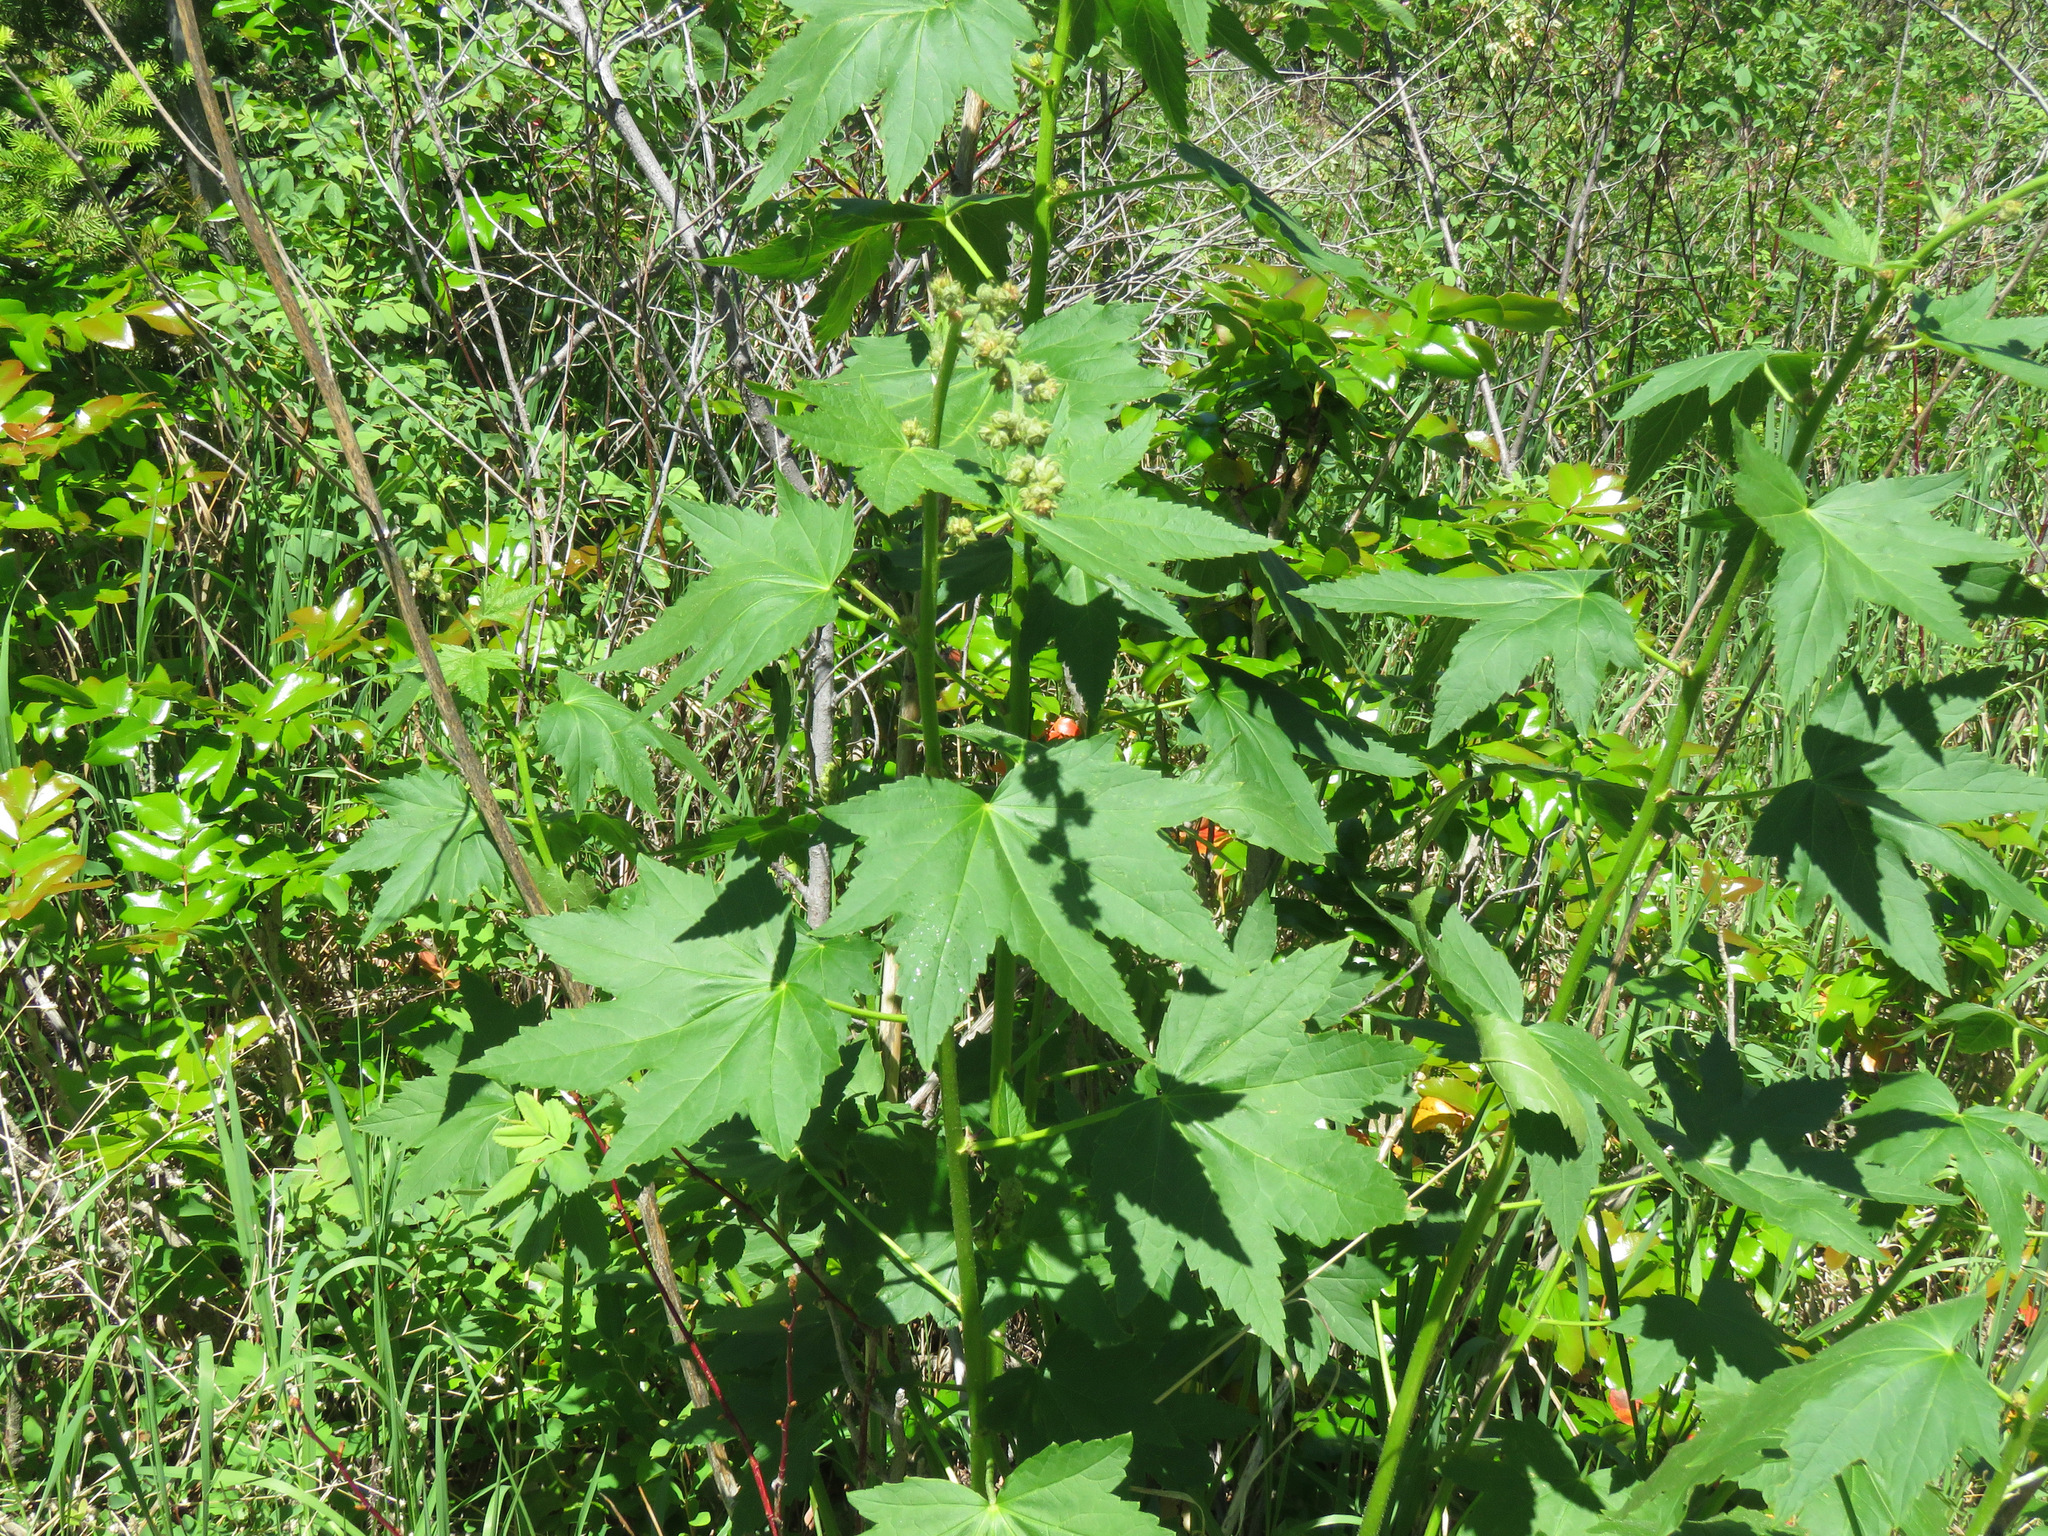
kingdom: Plantae
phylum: Tracheophyta
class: Magnoliopsida
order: Malvales
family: Malvaceae
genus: Iliamna
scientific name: Iliamna rivularis
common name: Wild hollyhock
